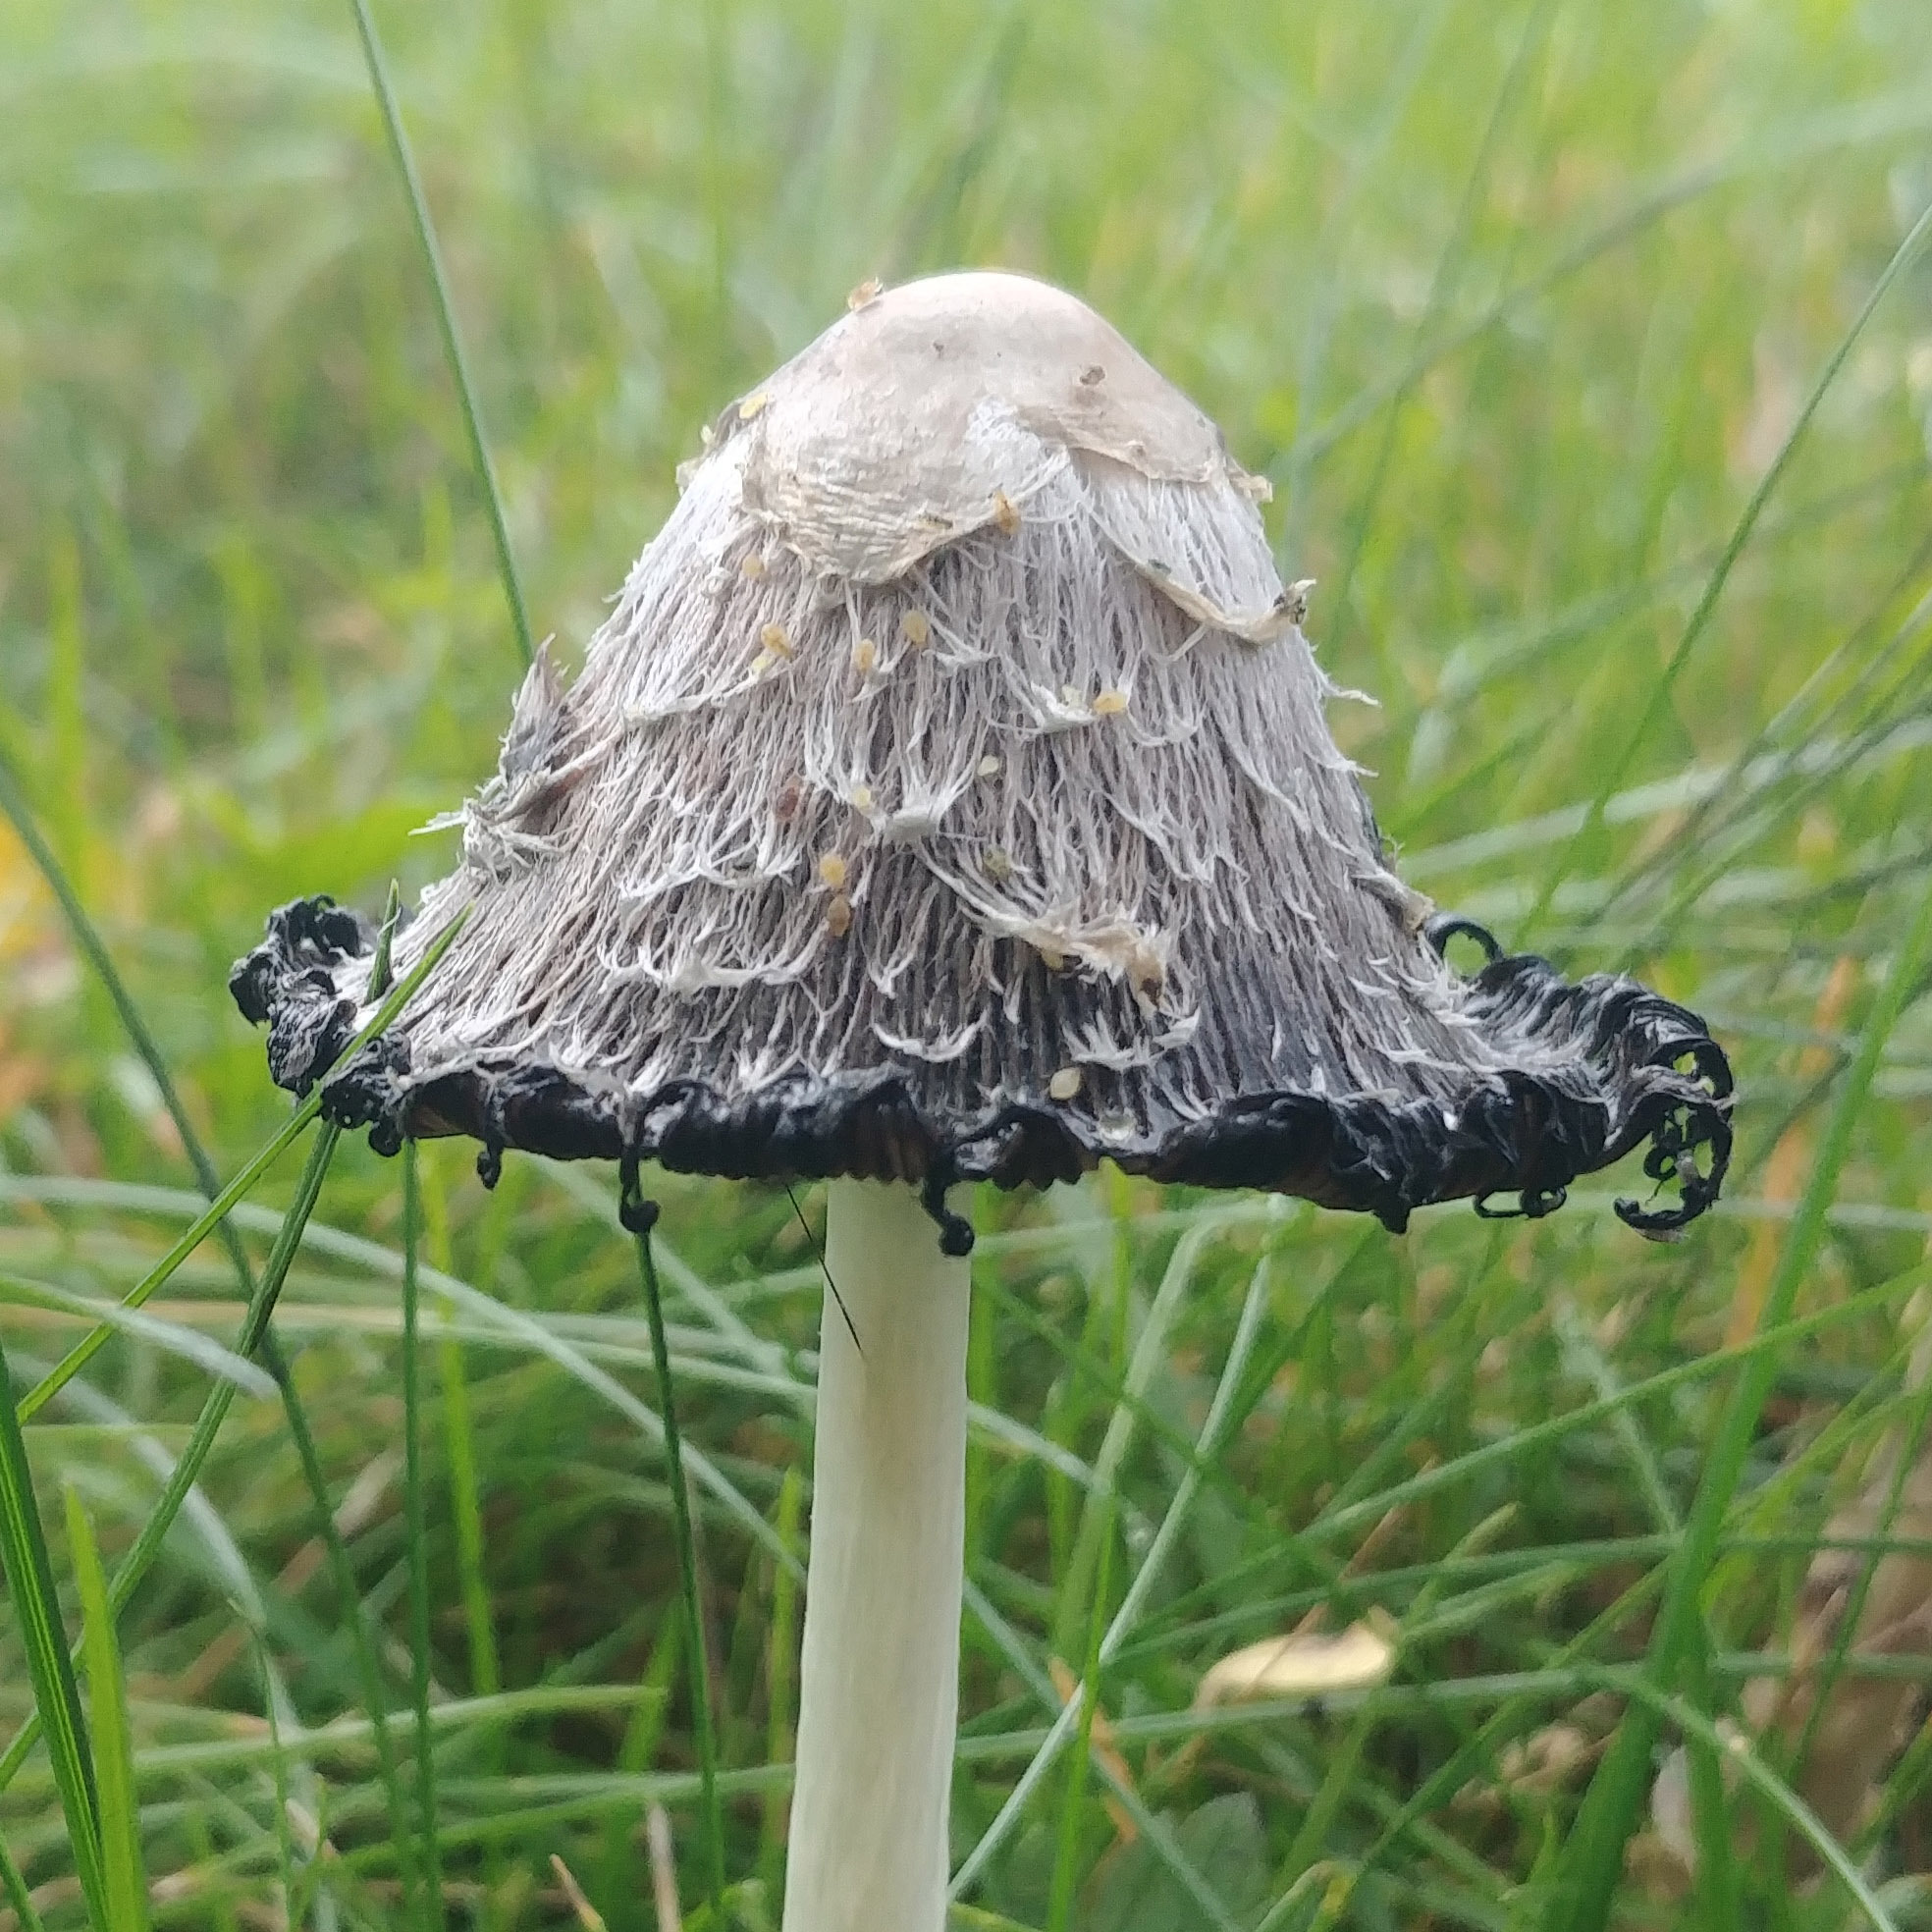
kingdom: Fungi
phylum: Basidiomycota
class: Agaricomycetes
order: Agaricales
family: Agaricaceae
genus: Coprinus
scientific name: Coprinus comatus
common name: Lawyer's wig
